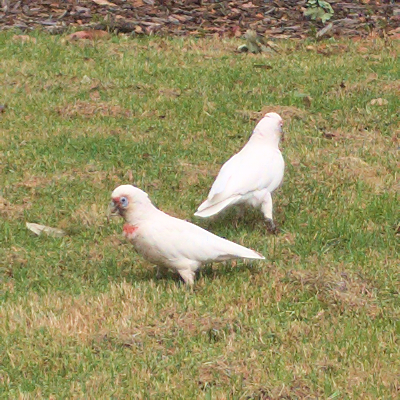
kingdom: Animalia
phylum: Chordata
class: Aves
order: Psittaciformes
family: Psittacidae
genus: Cacatua
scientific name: Cacatua tenuirostris
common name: Long-billed corella
